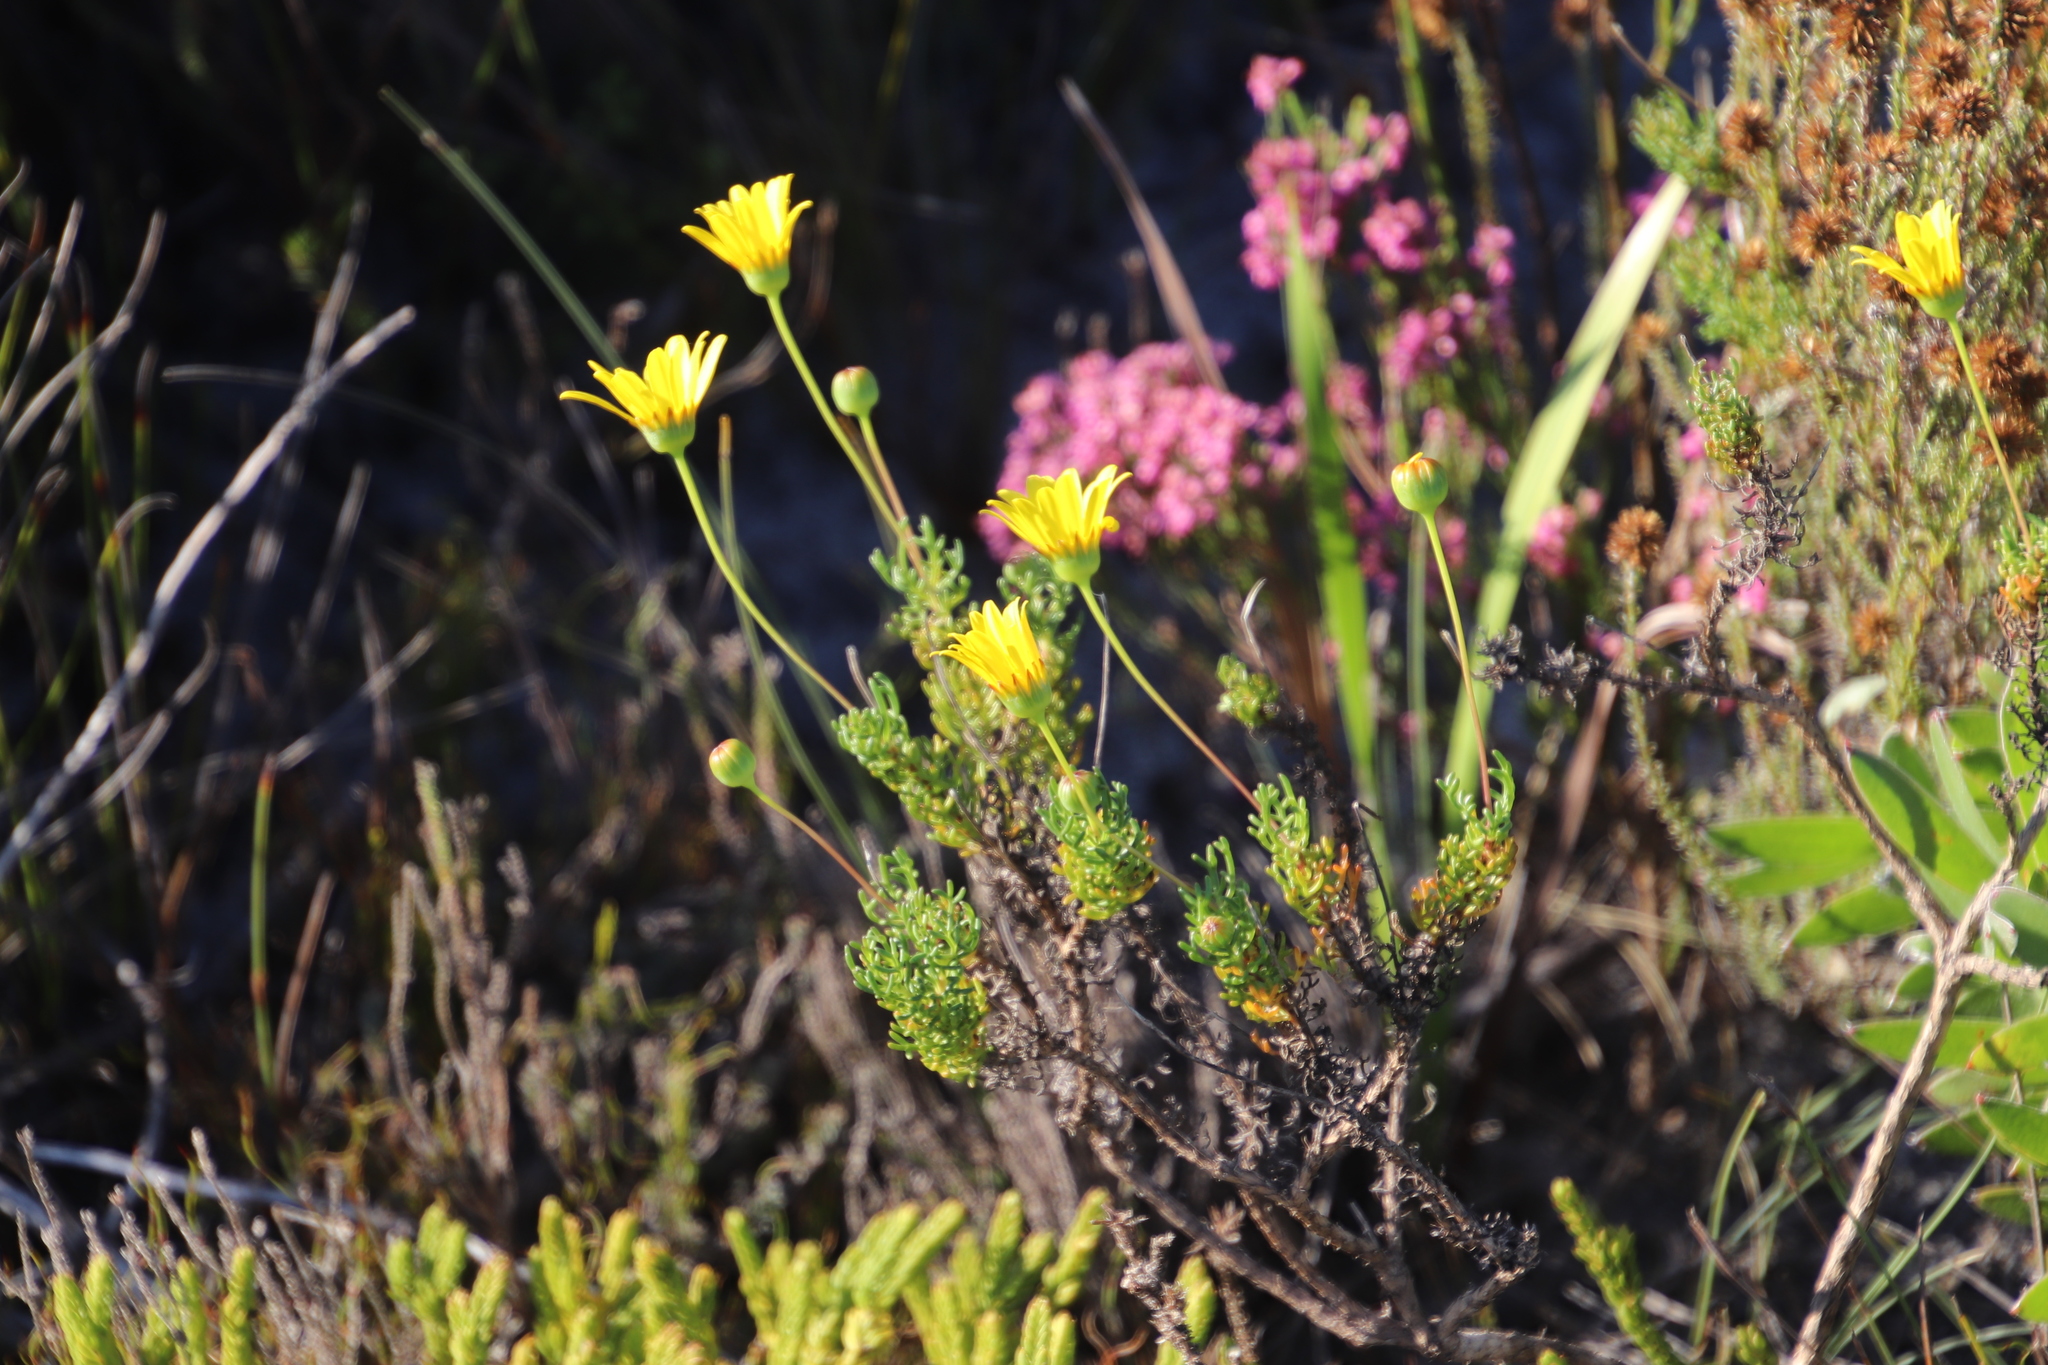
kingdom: Plantae
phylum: Tracheophyta
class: Magnoliopsida
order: Asterales
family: Asteraceae
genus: Euryops
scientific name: Euryops abrotanifolius
